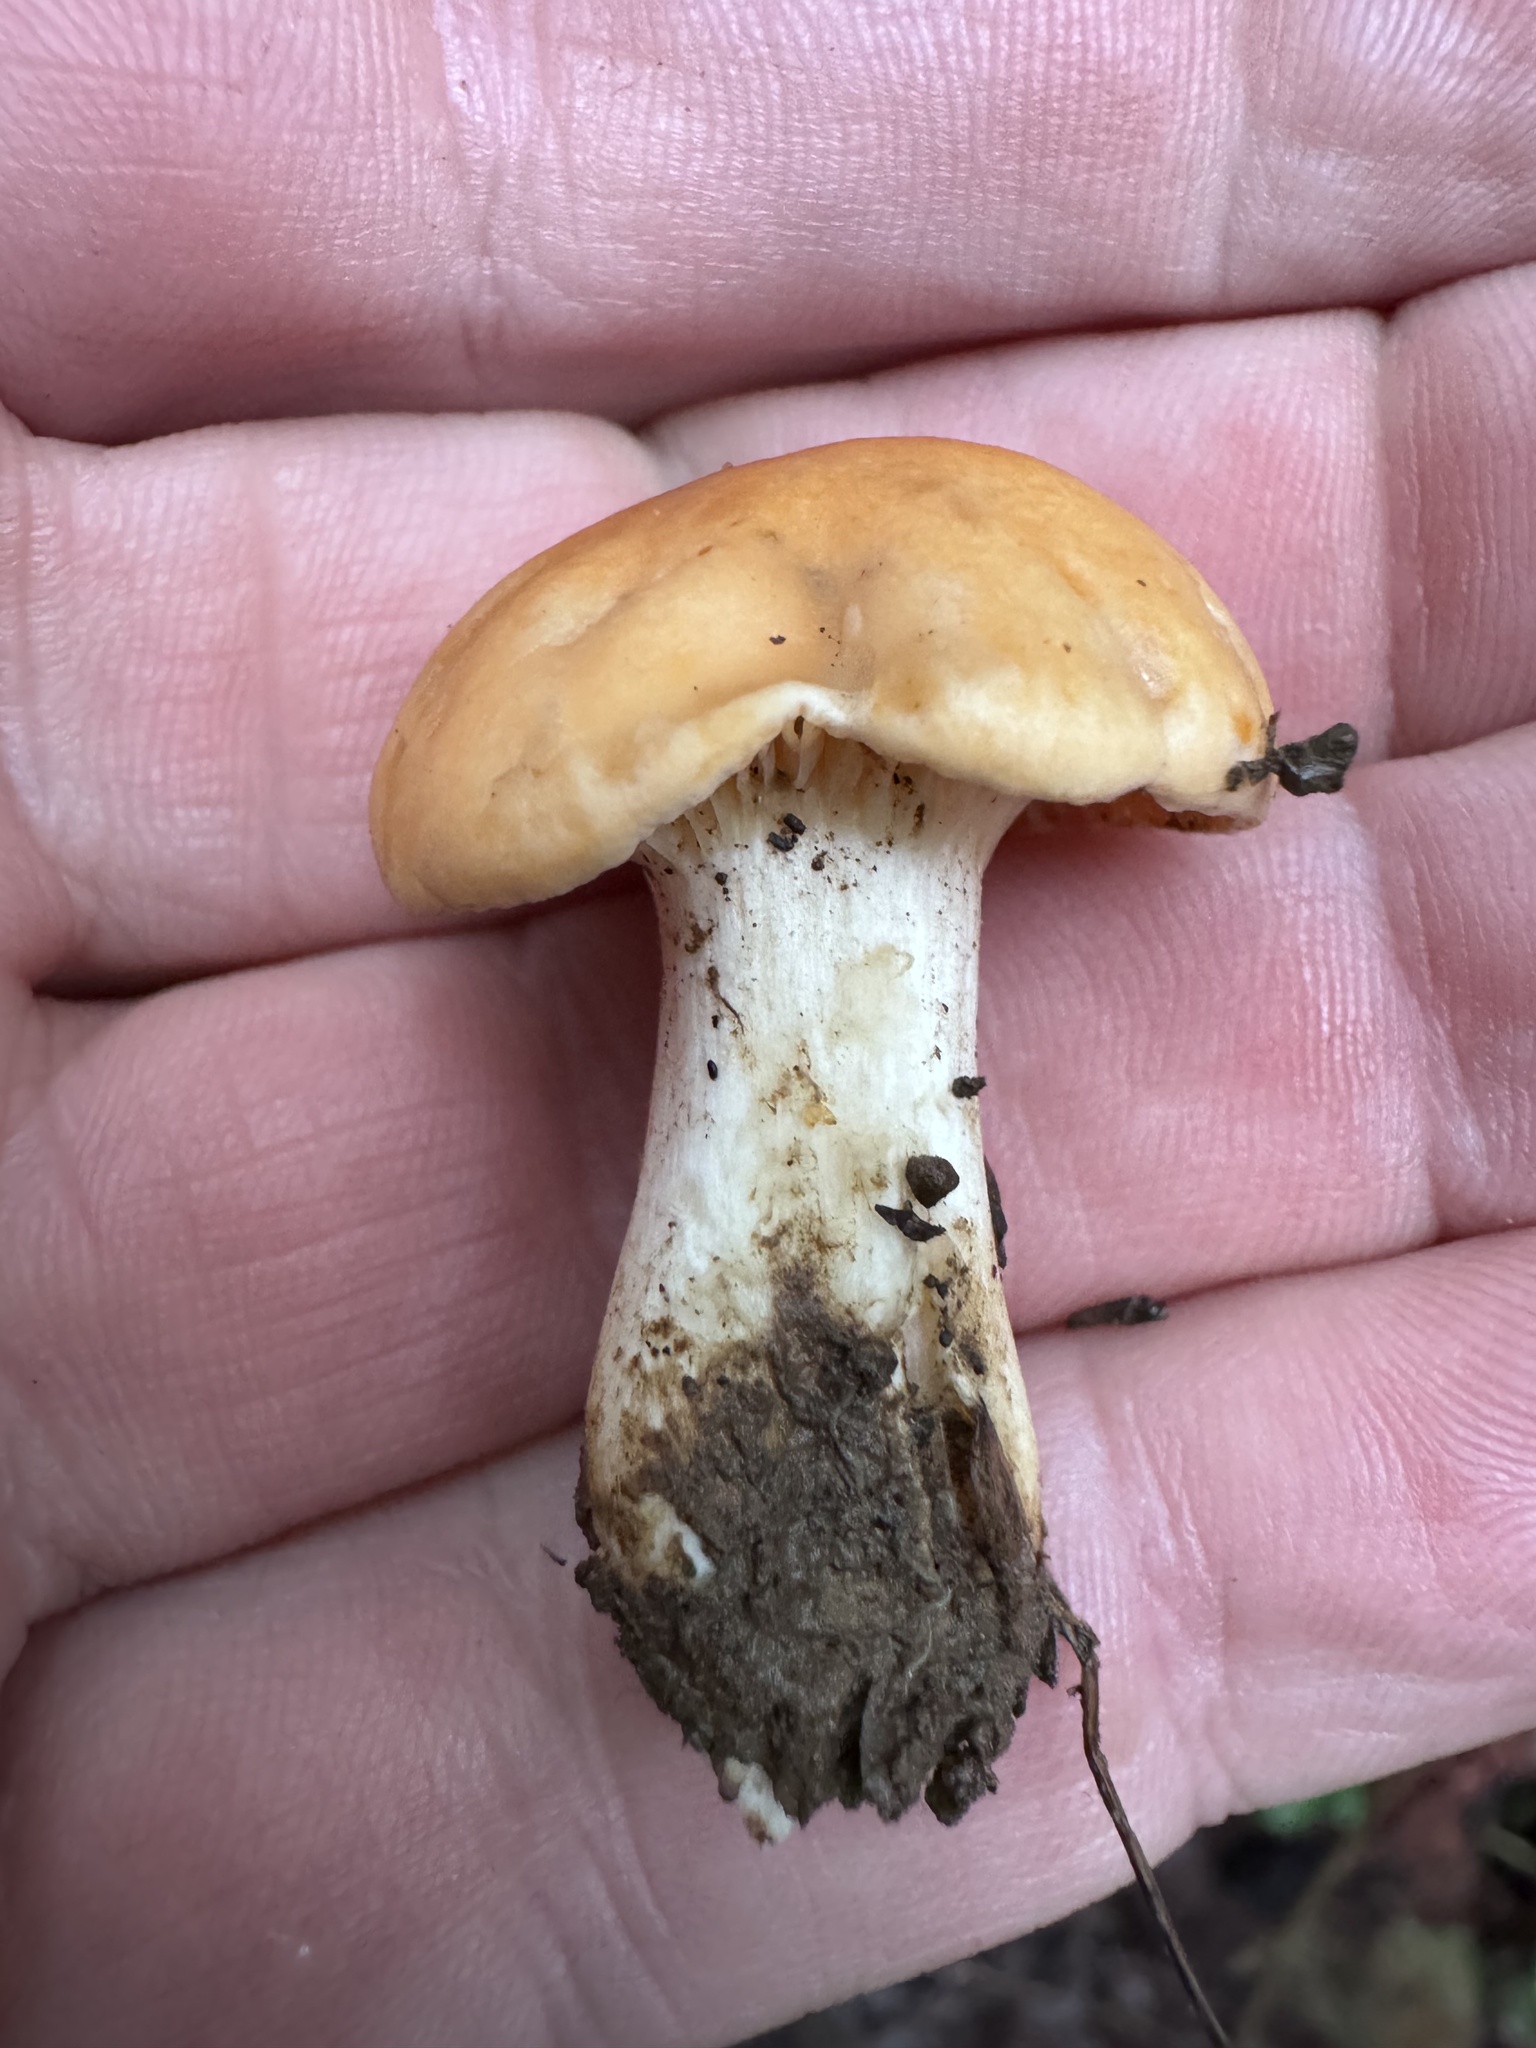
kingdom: Fungi
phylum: Basidiomycota
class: Agaricomycetes
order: Agaricales
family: Hygrophoraceae
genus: Cuphophyllus
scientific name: Cuphophyllus pratensis
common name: Meadow waxcap
